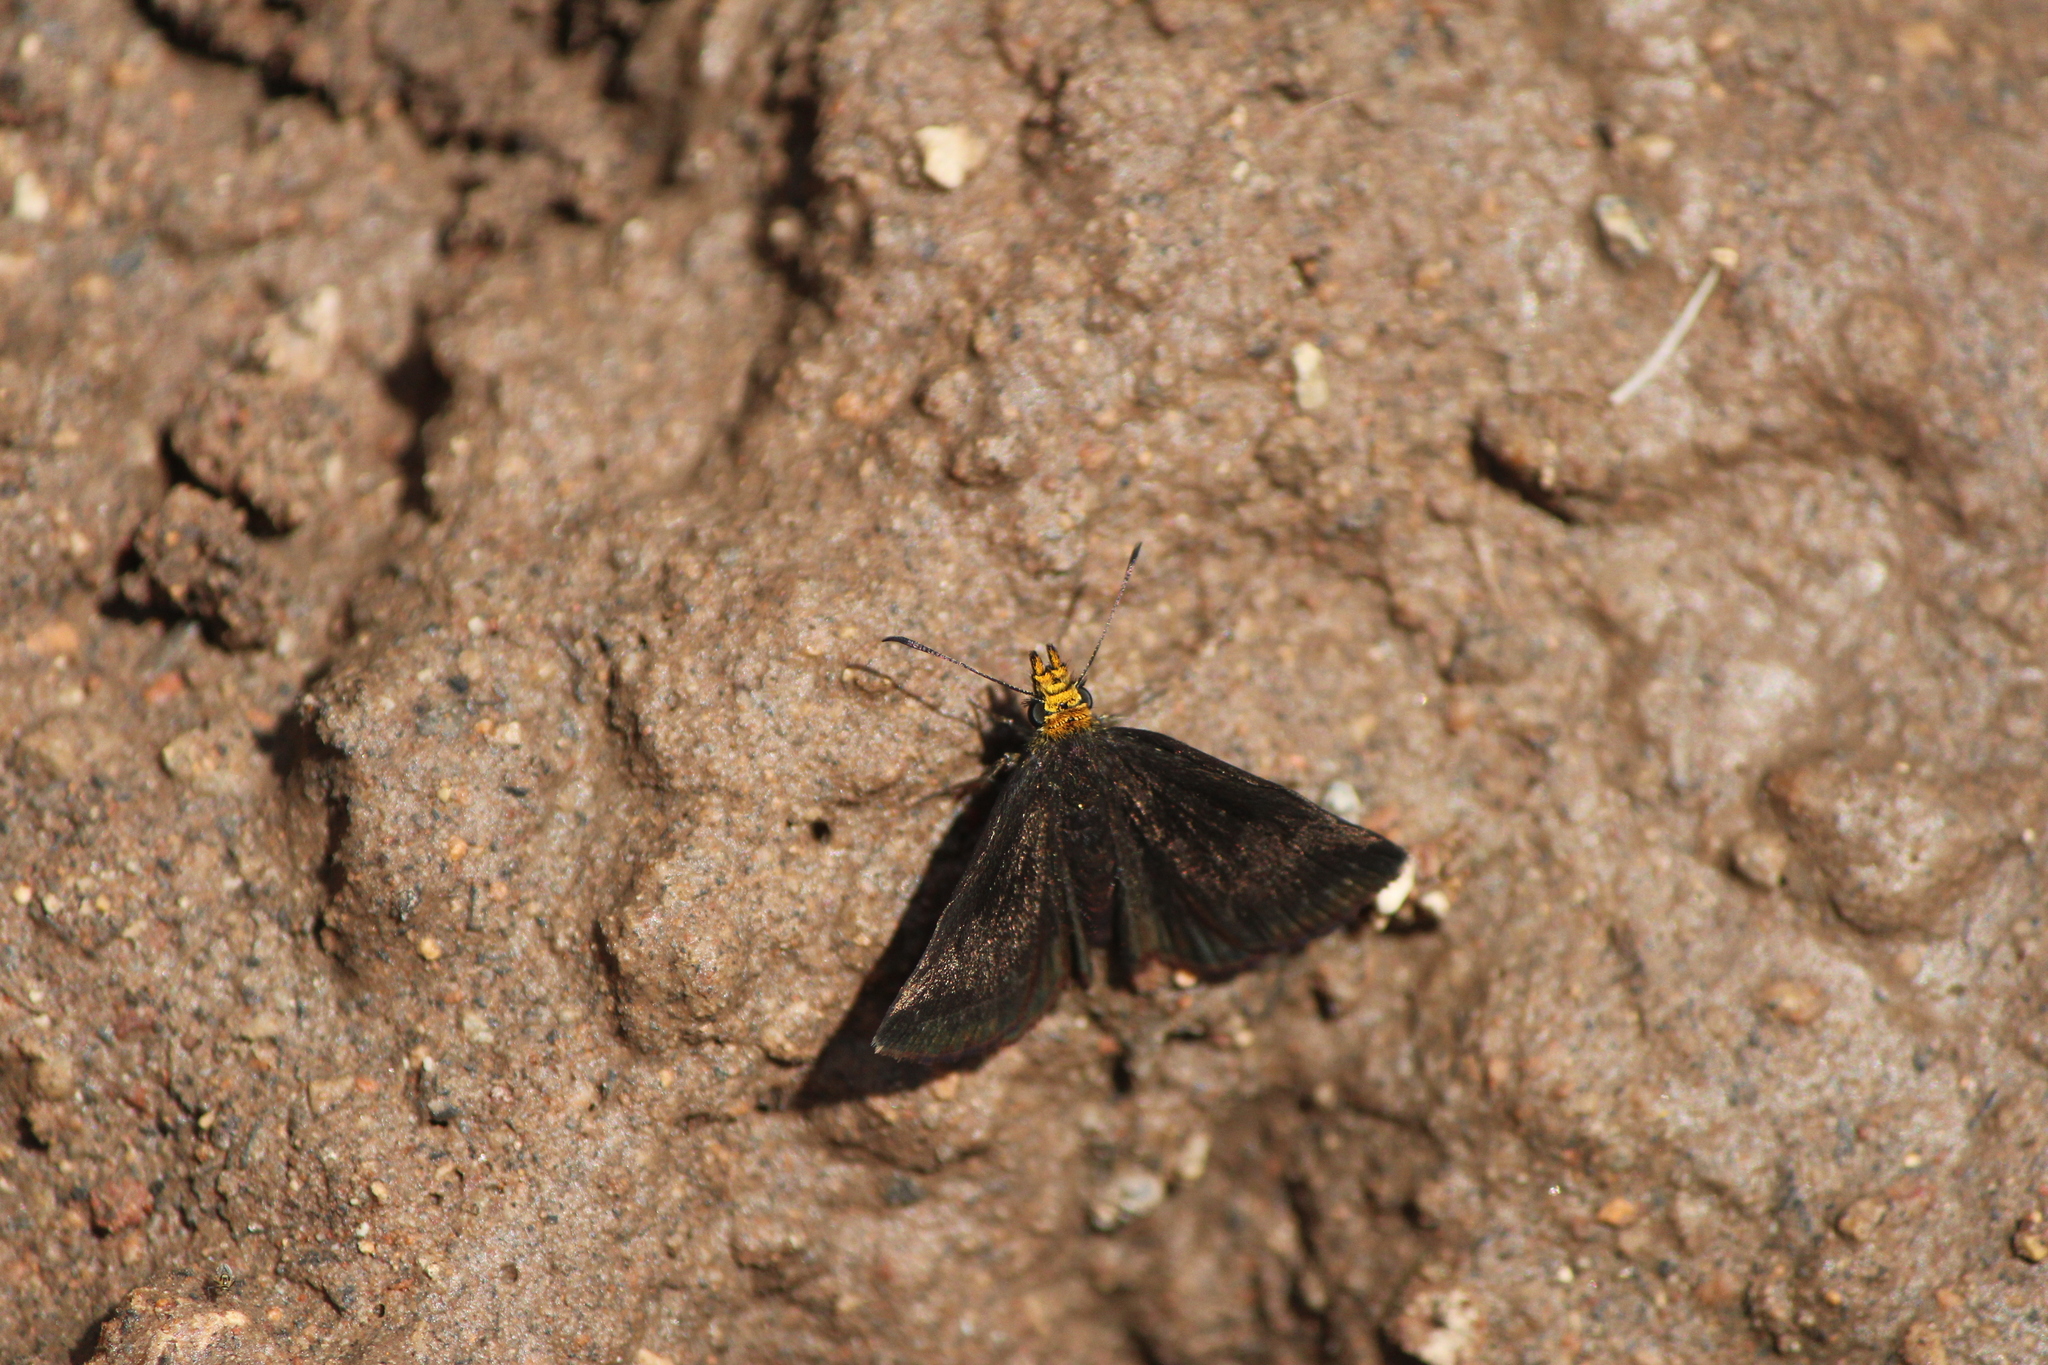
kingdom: Animalia
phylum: Arthropoda
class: Insecta
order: Lepidoptera
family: Hesperiidae
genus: Staphylus
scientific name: Staphylus ceos
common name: Golden-headed scallopwing
